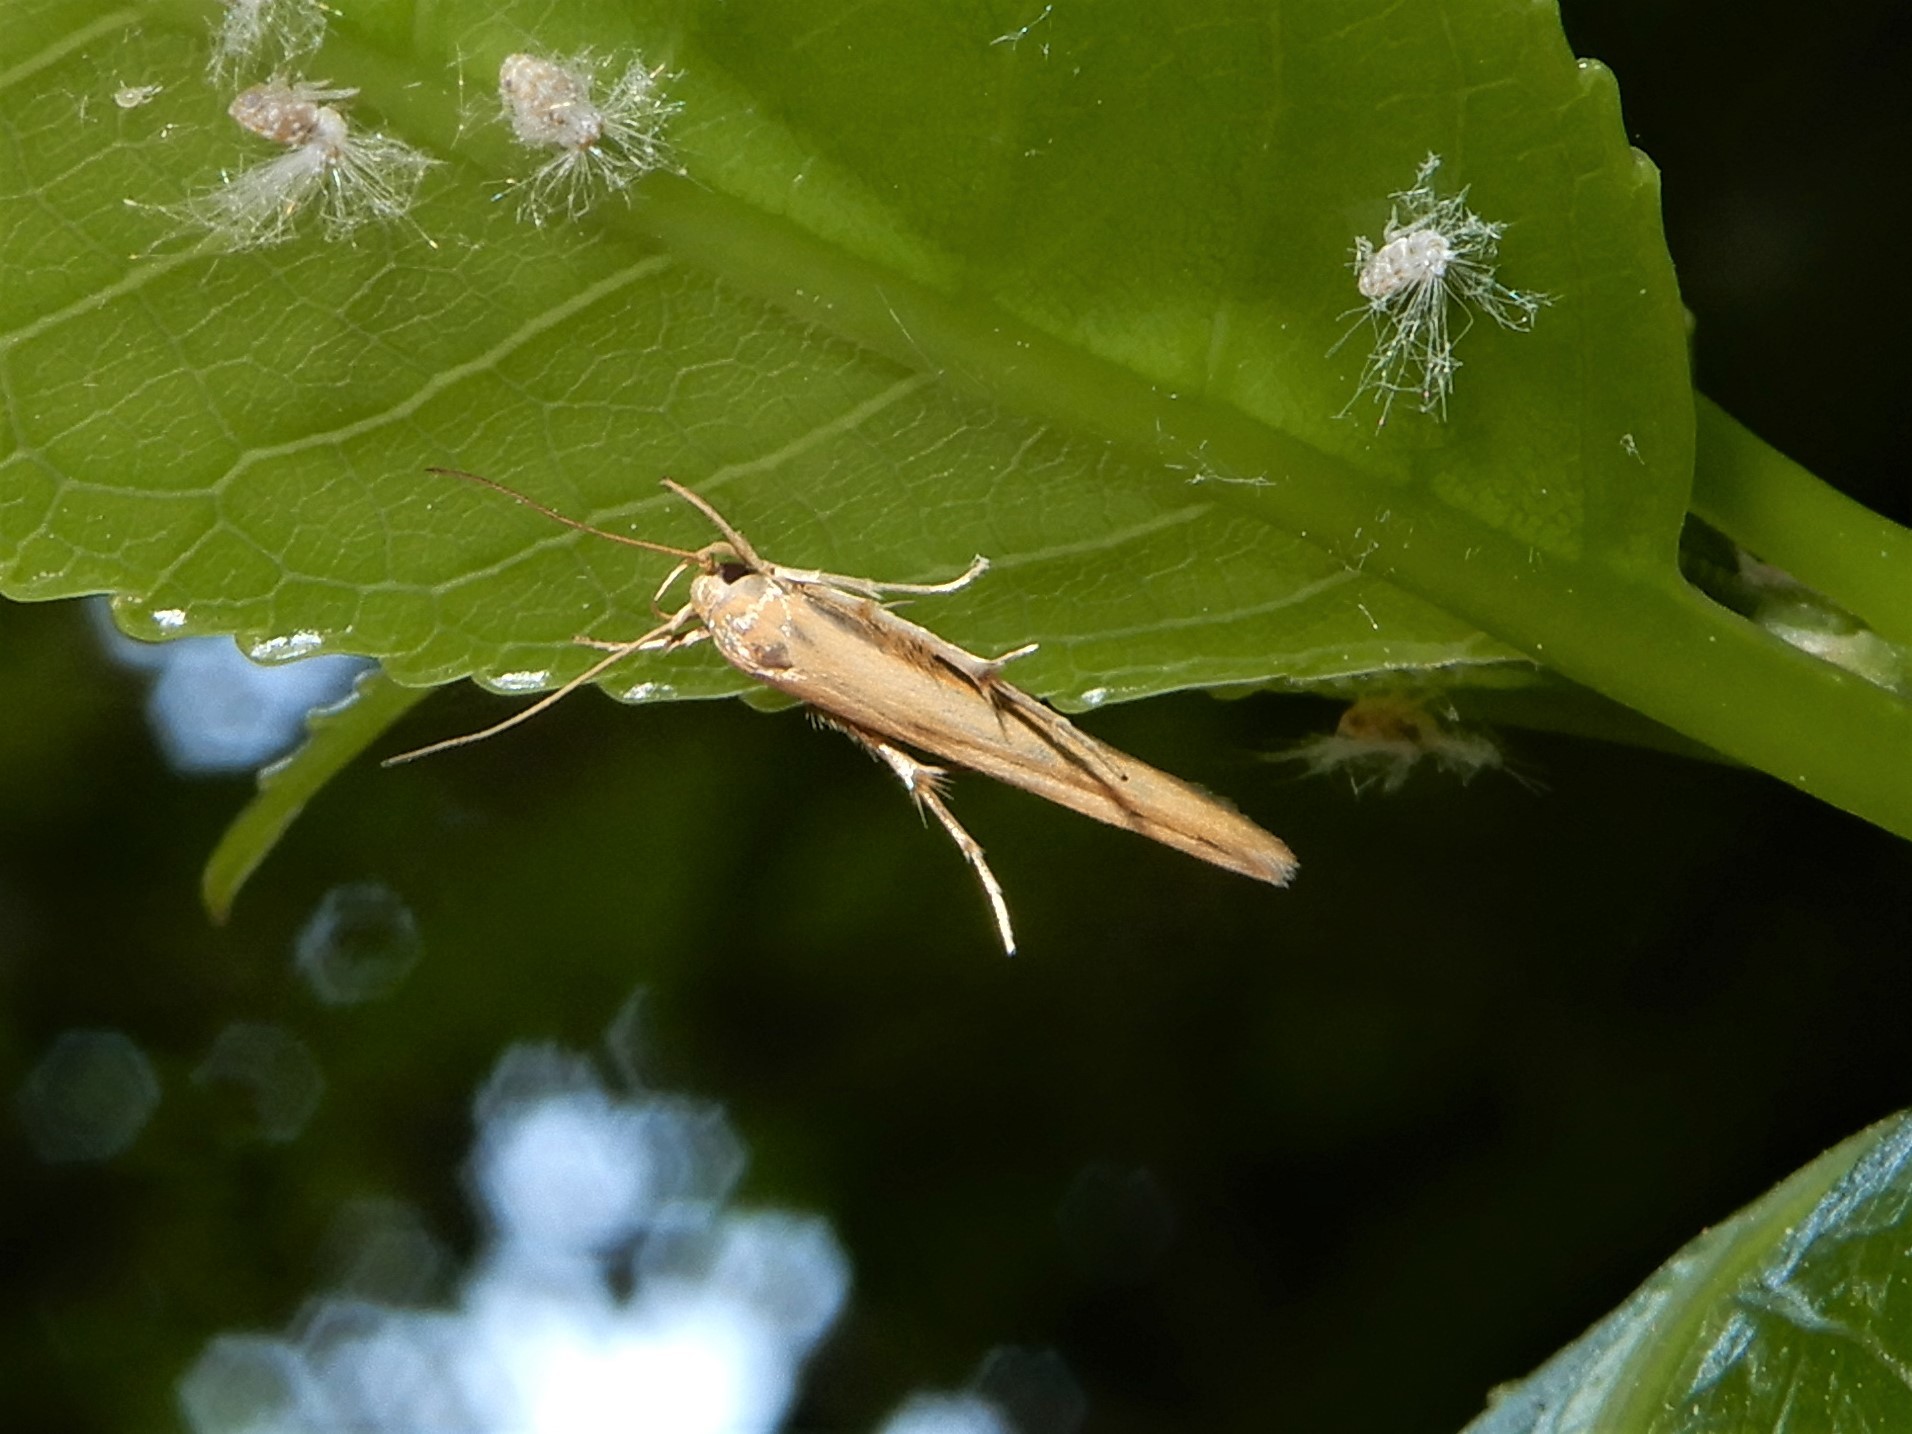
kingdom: Animalia
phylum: Arthropoda
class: Insecta
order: Lepidoptera
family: Stathmopodidae
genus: Stathmopoda
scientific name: Stathmopoda skelloni
